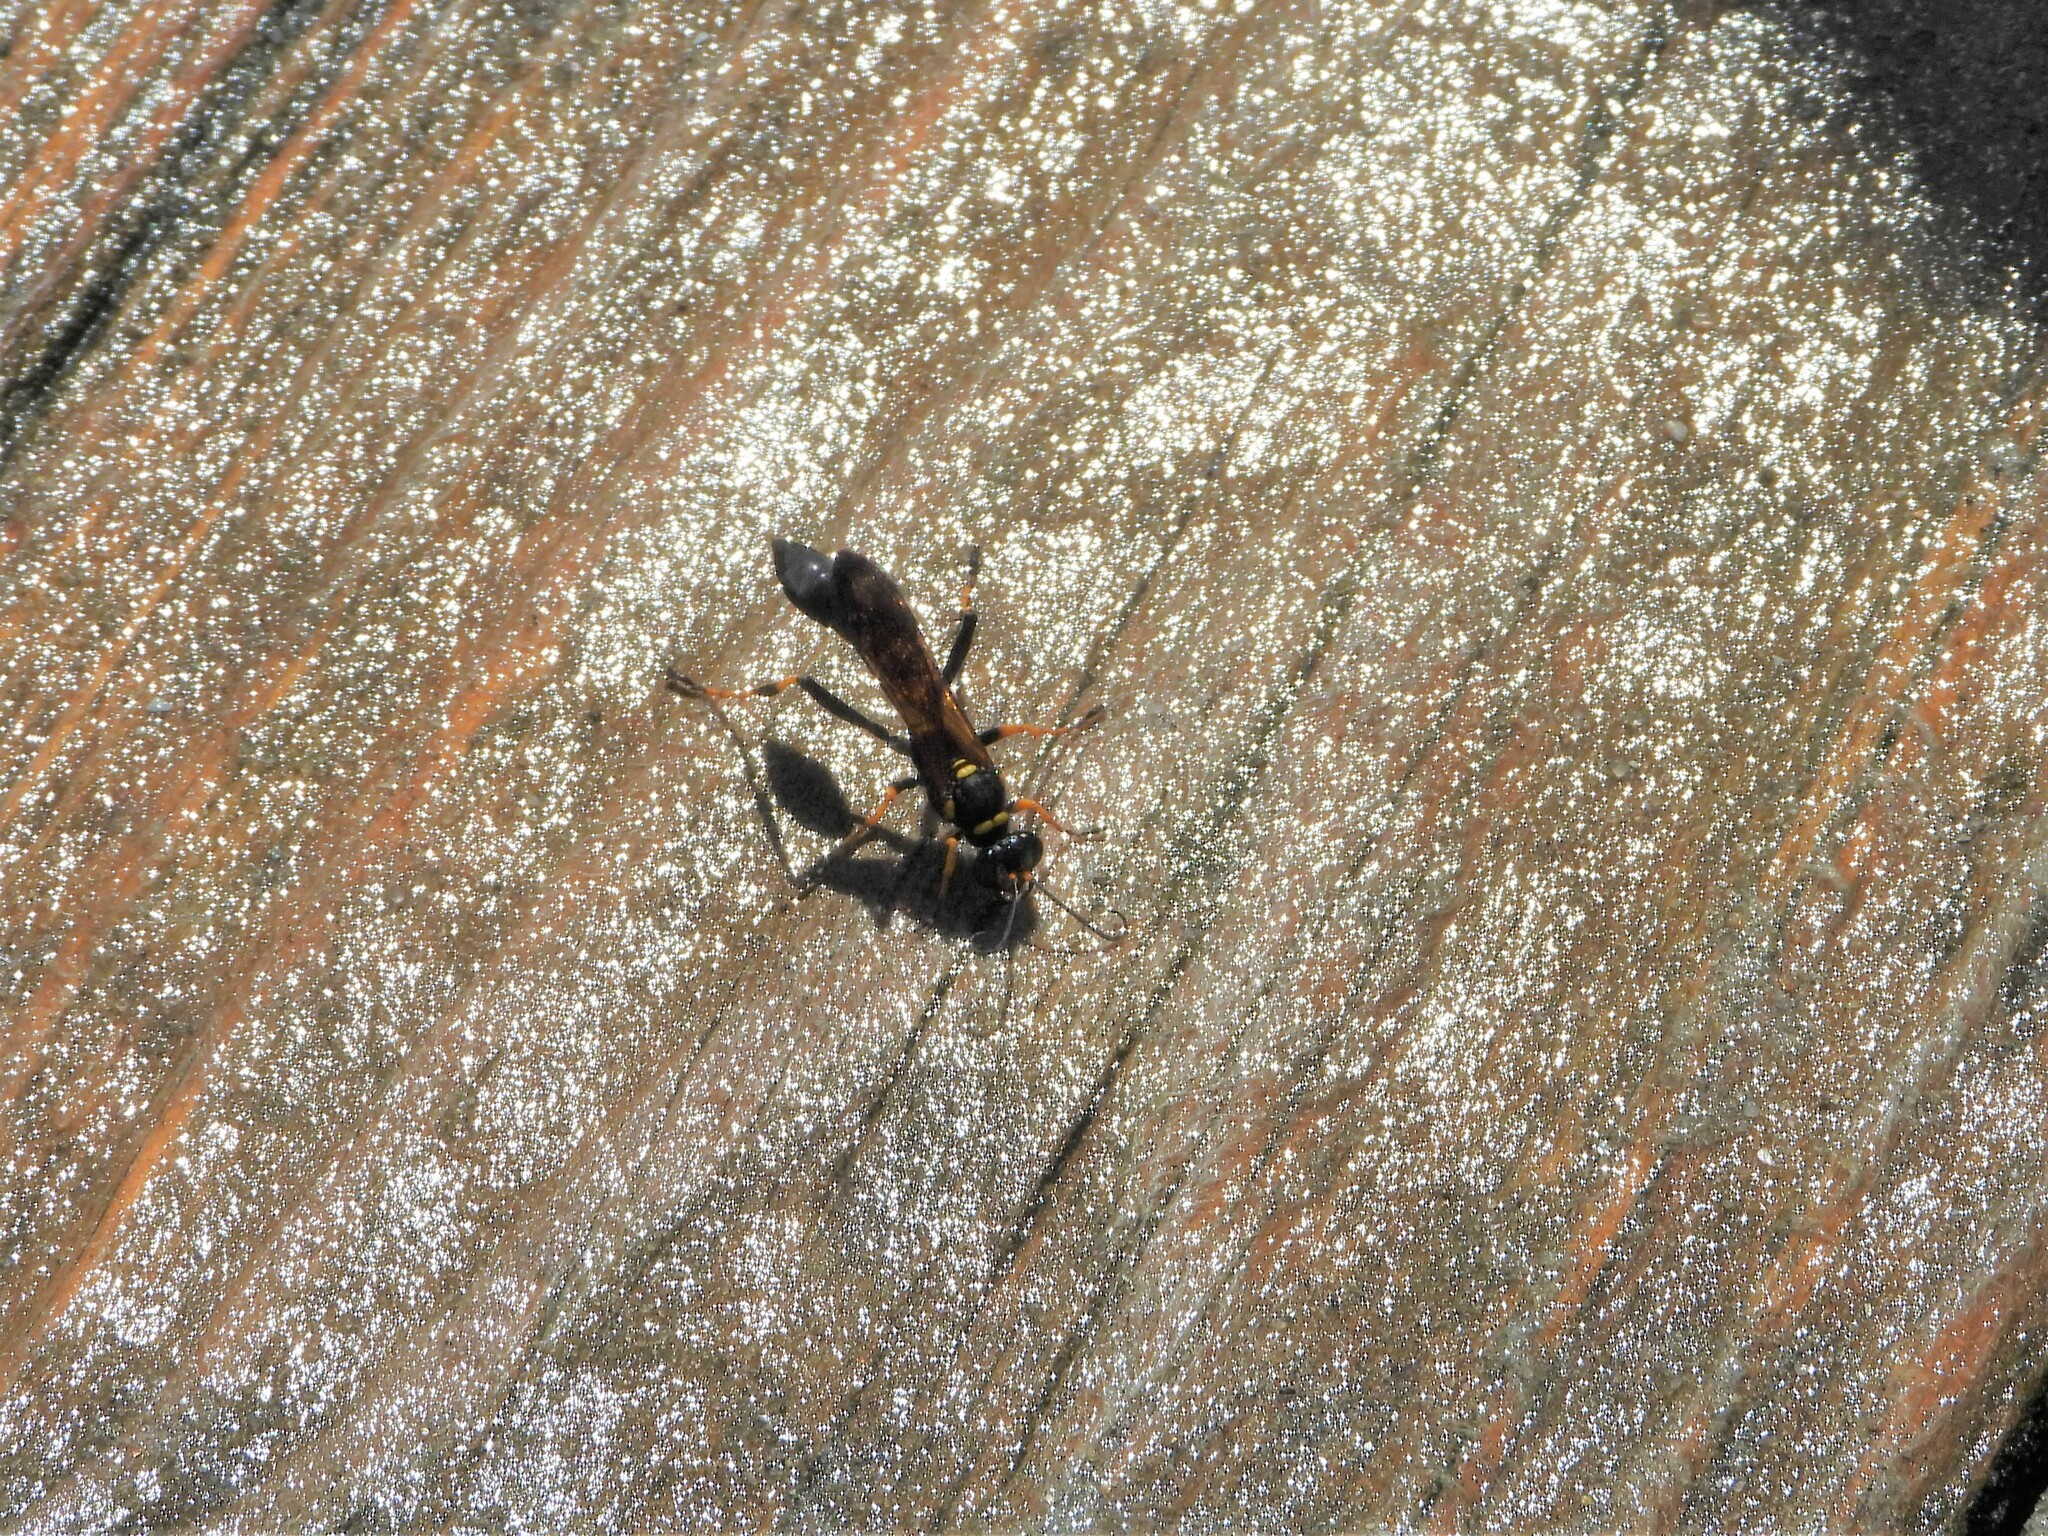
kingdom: Animalia
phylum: Arthropoda
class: Insecta
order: Hymenoptera
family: Sphecidae
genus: Sceliphron
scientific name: Sceliphron caementarium
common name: Mud dauber
